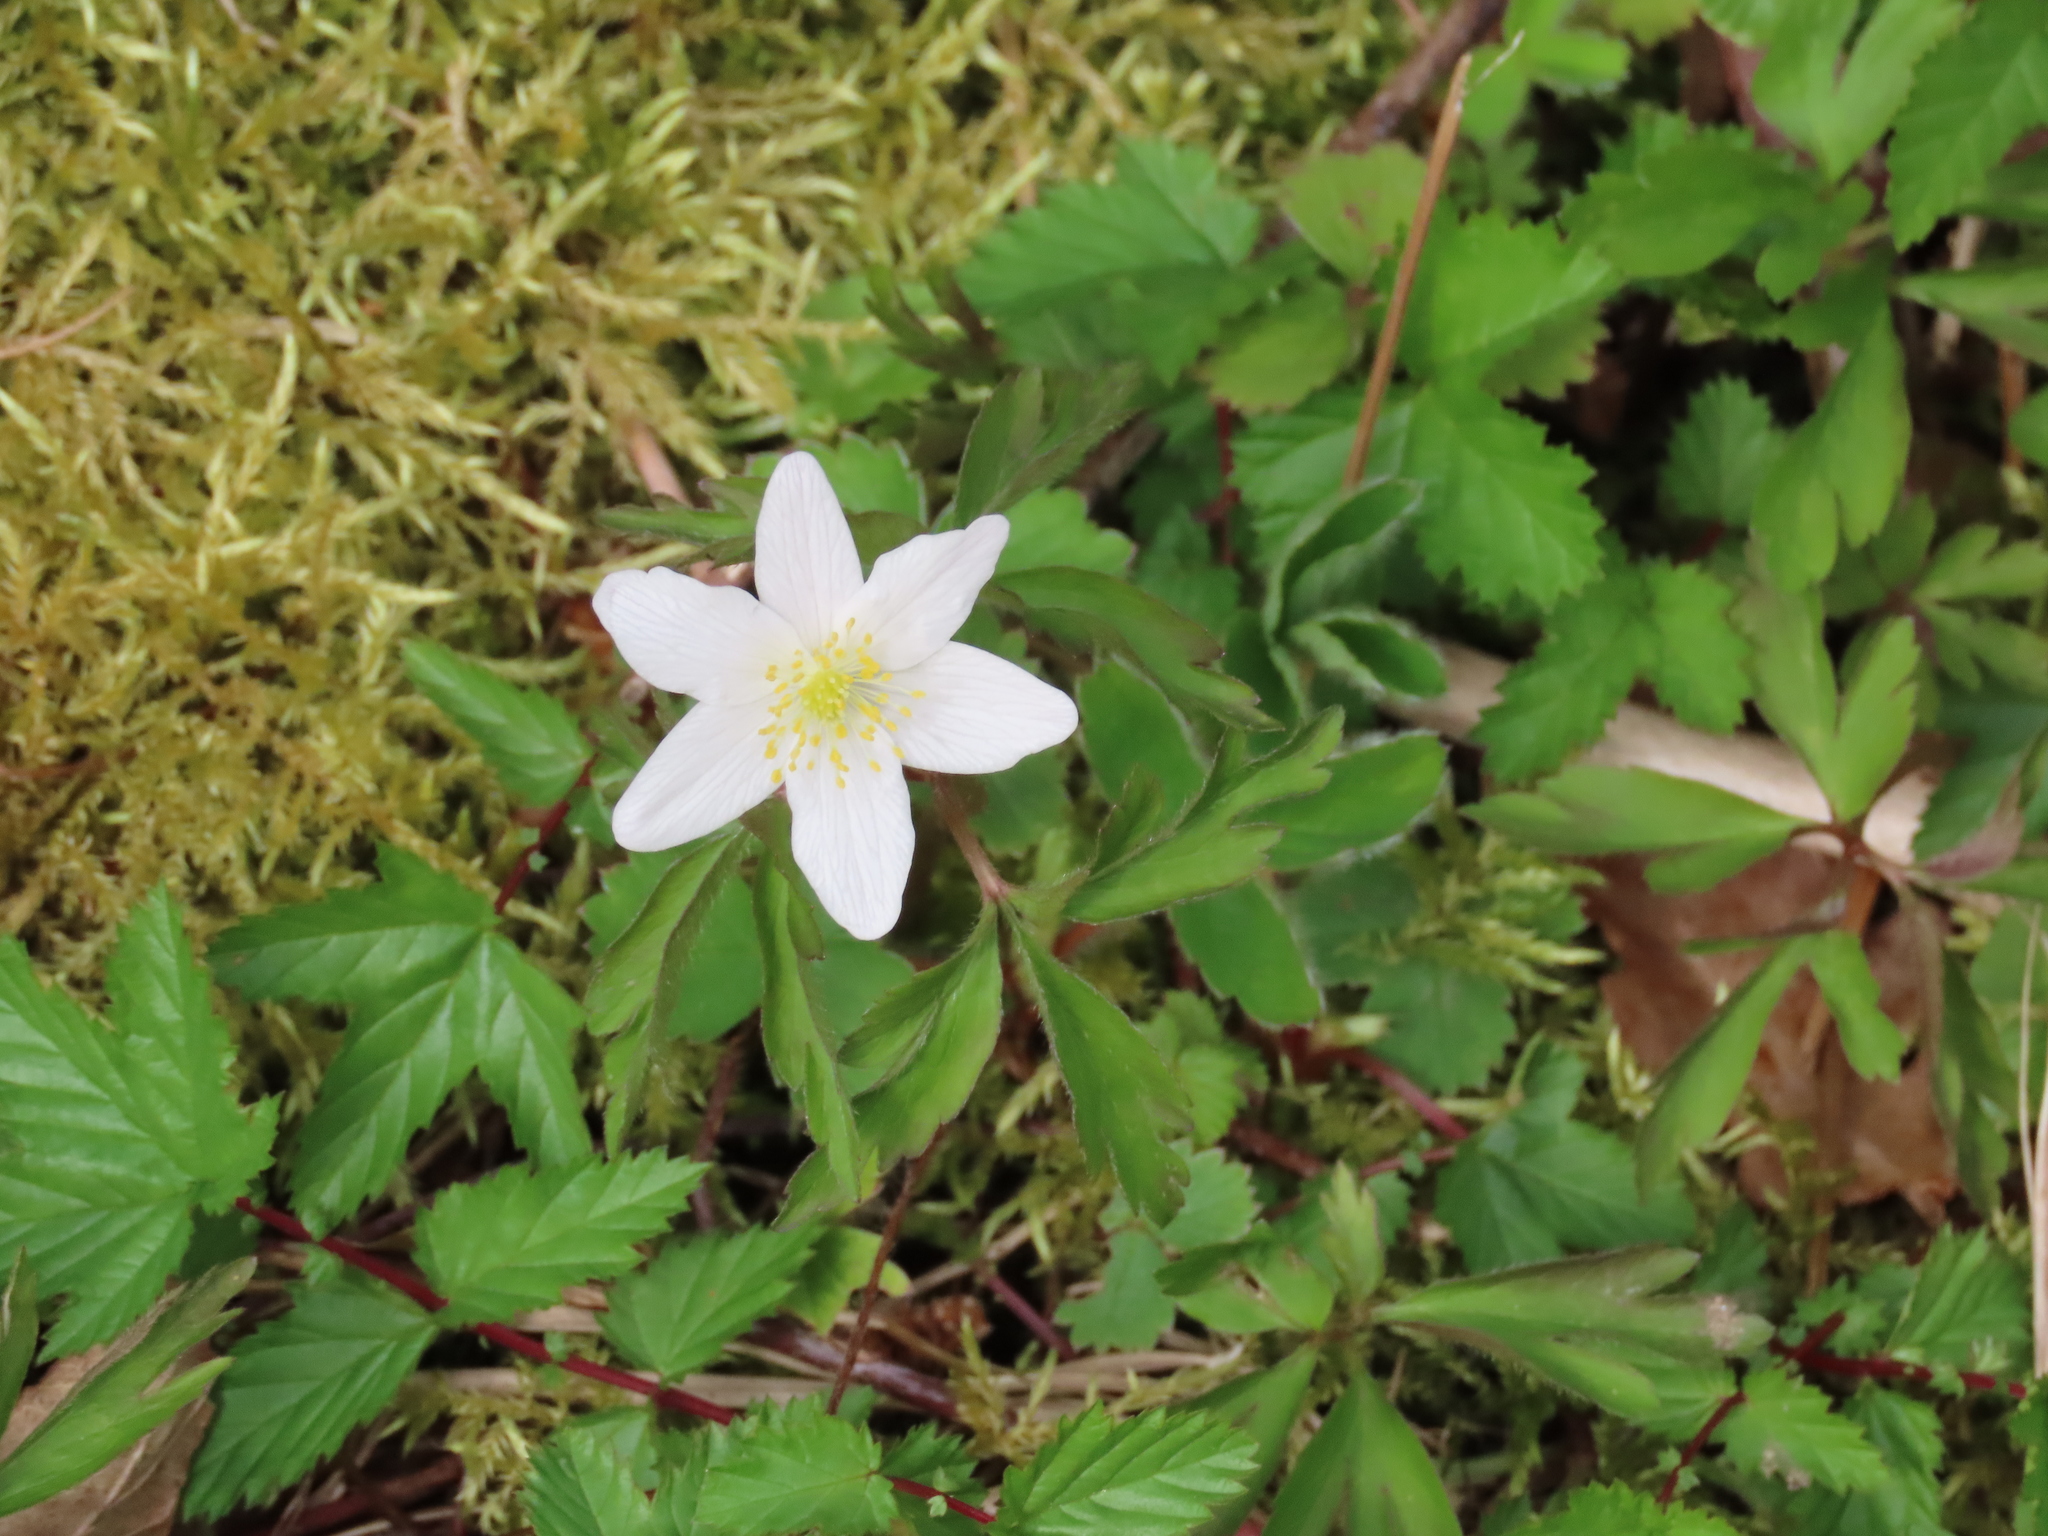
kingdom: Plantae
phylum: Tracheophyta
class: Magnoliopsida
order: Ranunculales
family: Ranunculaceae
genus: Anemone
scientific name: Anemone nemorosa
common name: Wood anemone
